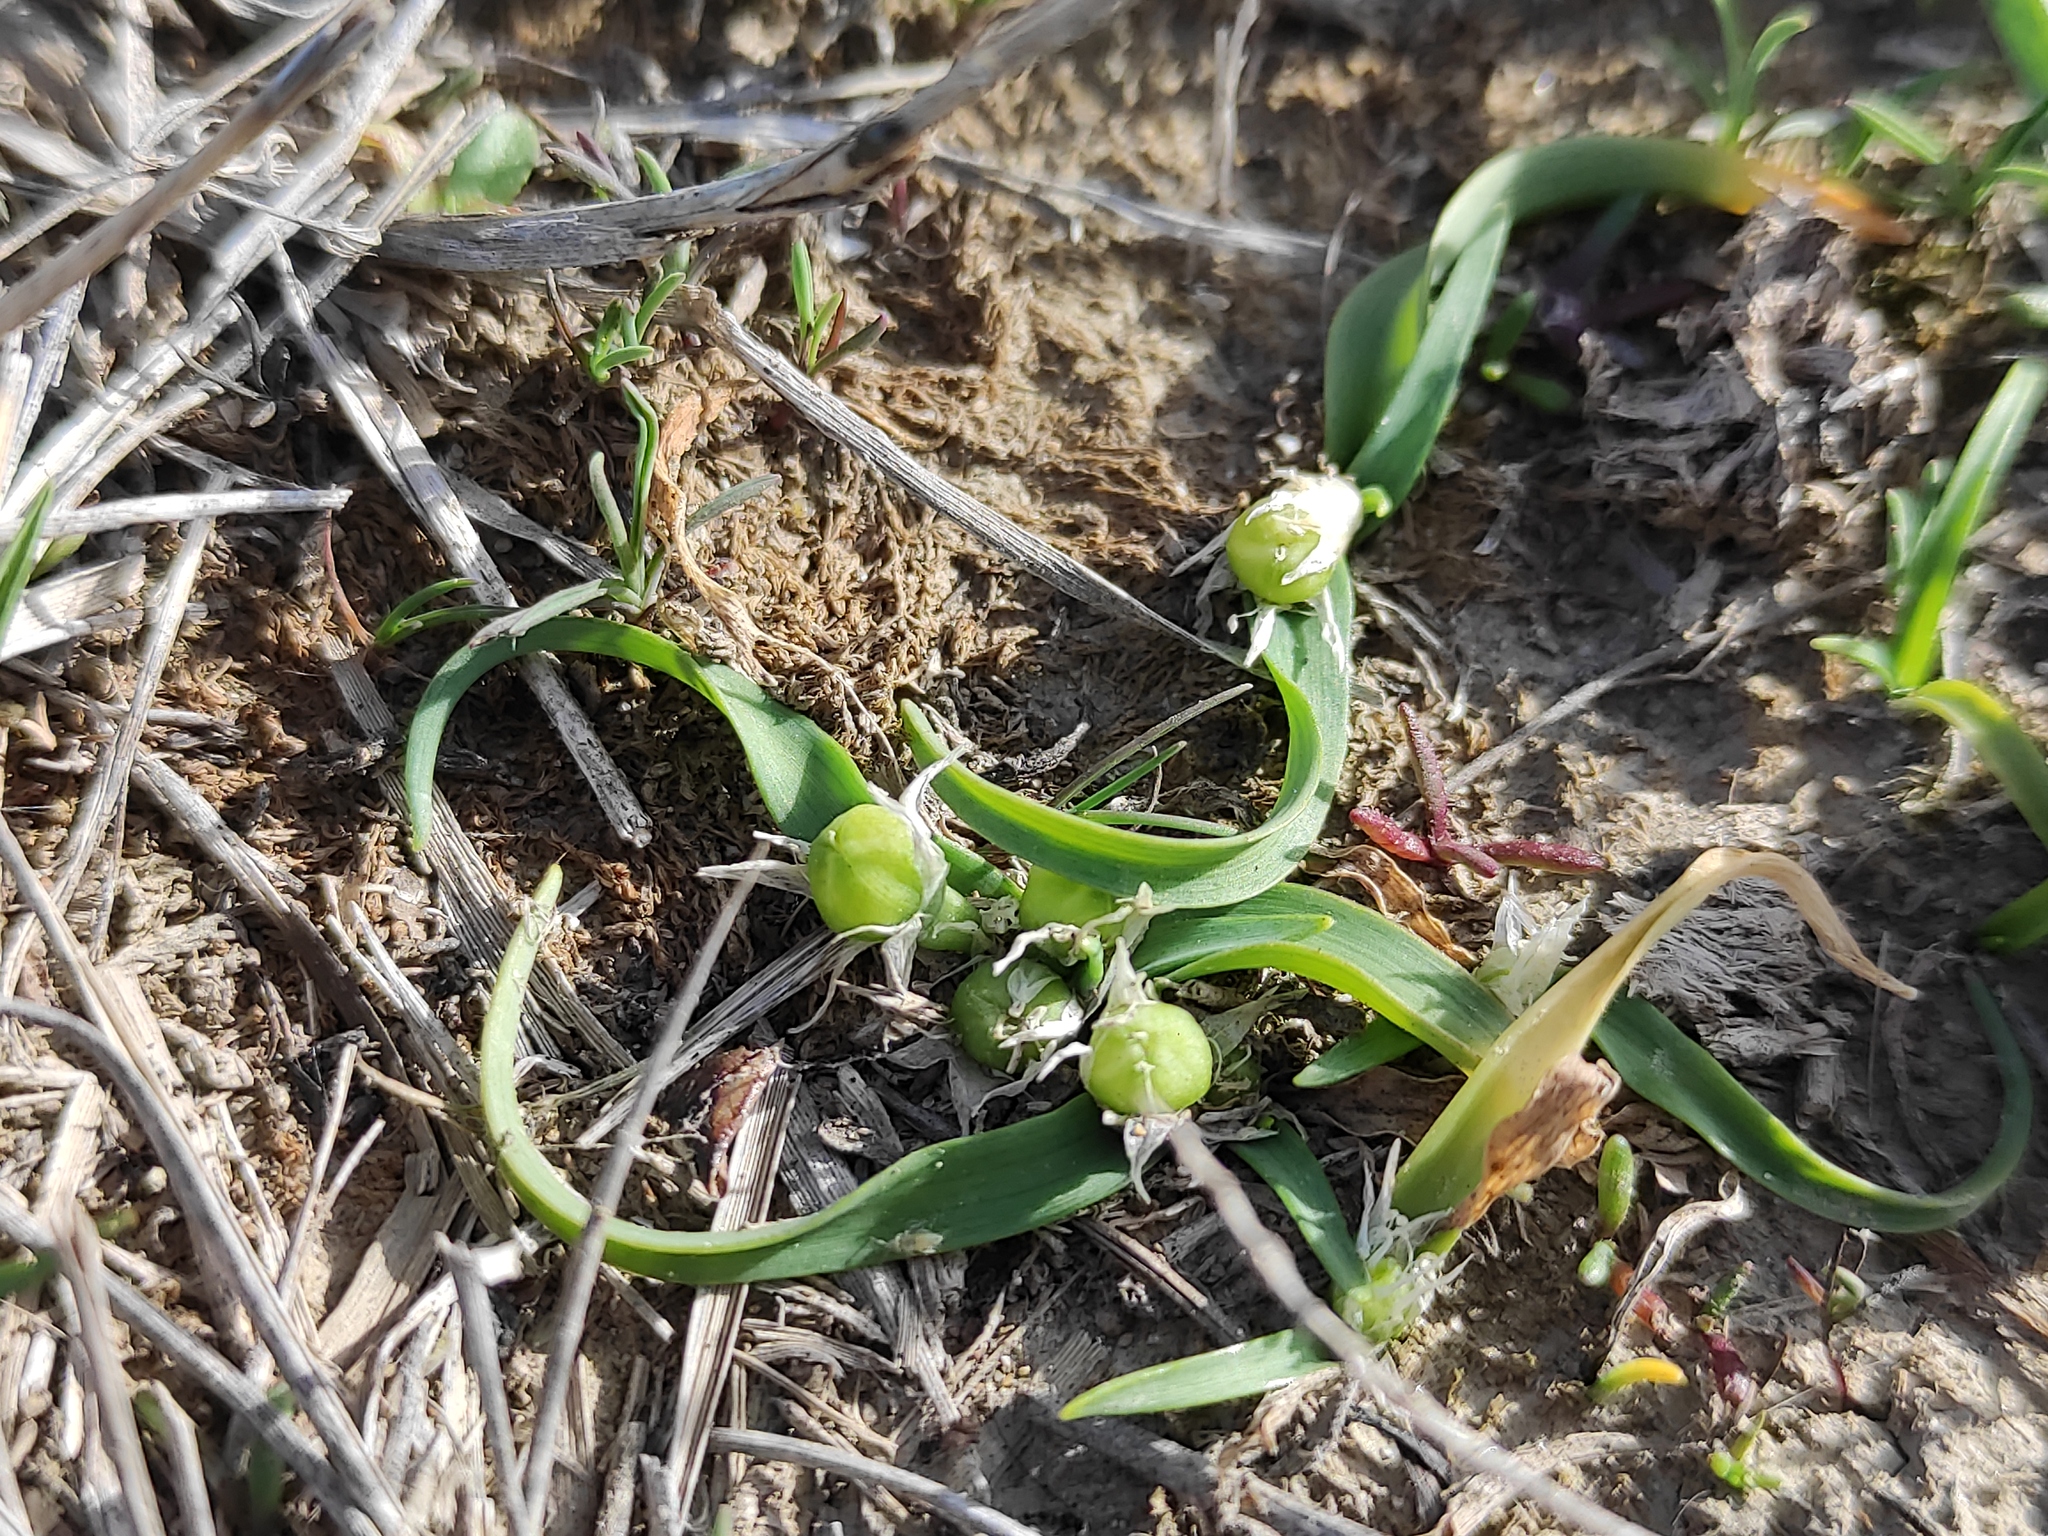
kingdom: Plantae
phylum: Tracheophyta
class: Liliopsida
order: Asparagales
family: Amaryllidaceae
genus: Allium
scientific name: Allium chamaemoly
